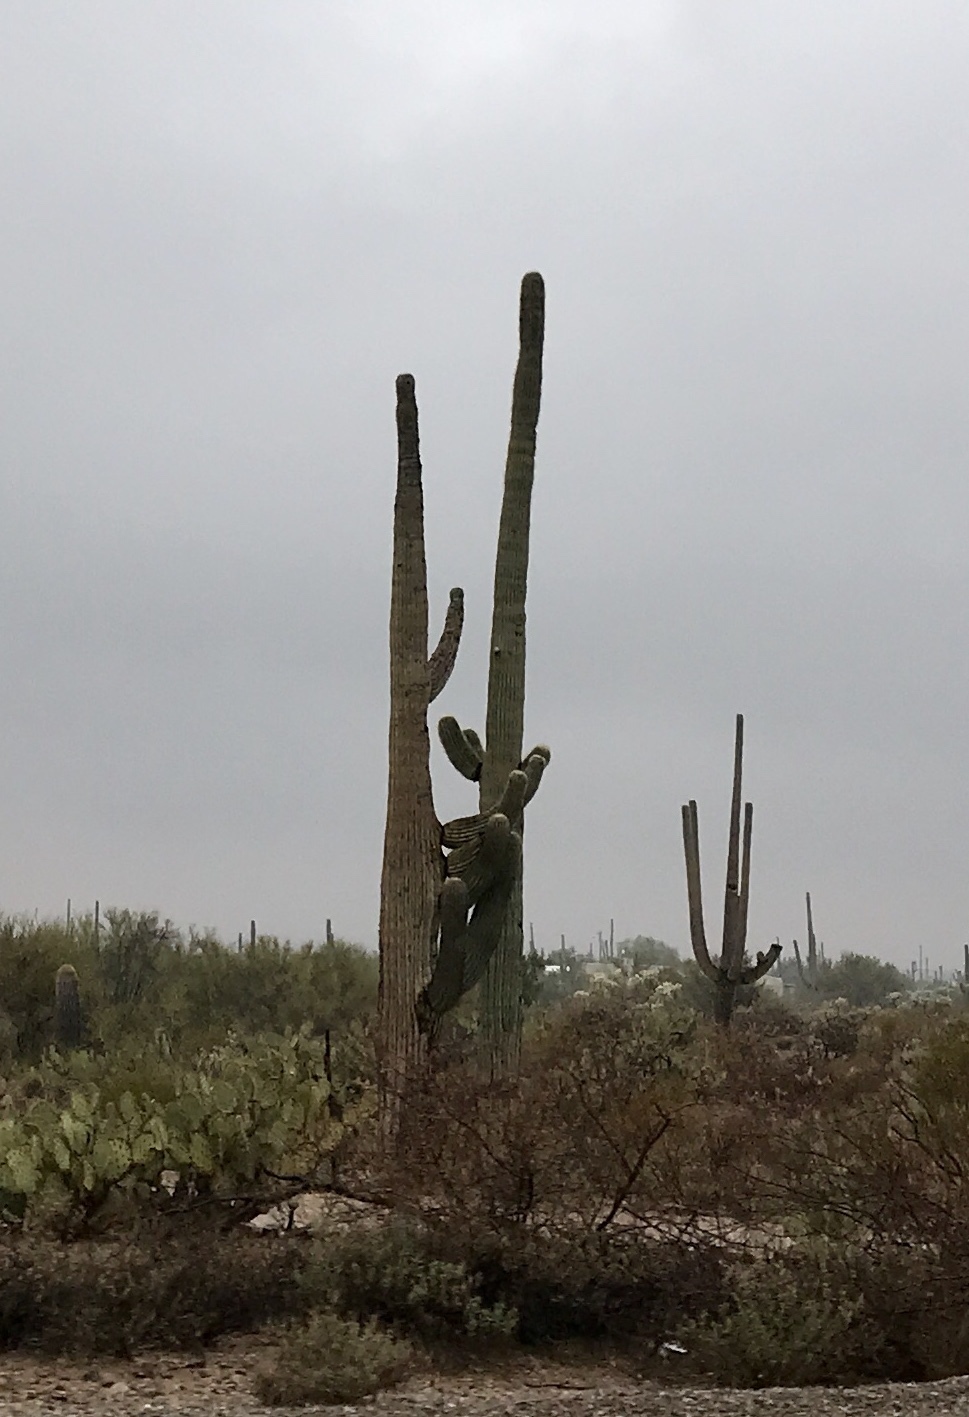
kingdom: Plantae
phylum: Tracheophyta
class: Magnoliopsida
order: Caryophyllales
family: Cactaceae
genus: Carnegiea
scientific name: Carnegiea gigantea
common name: Saguaro
